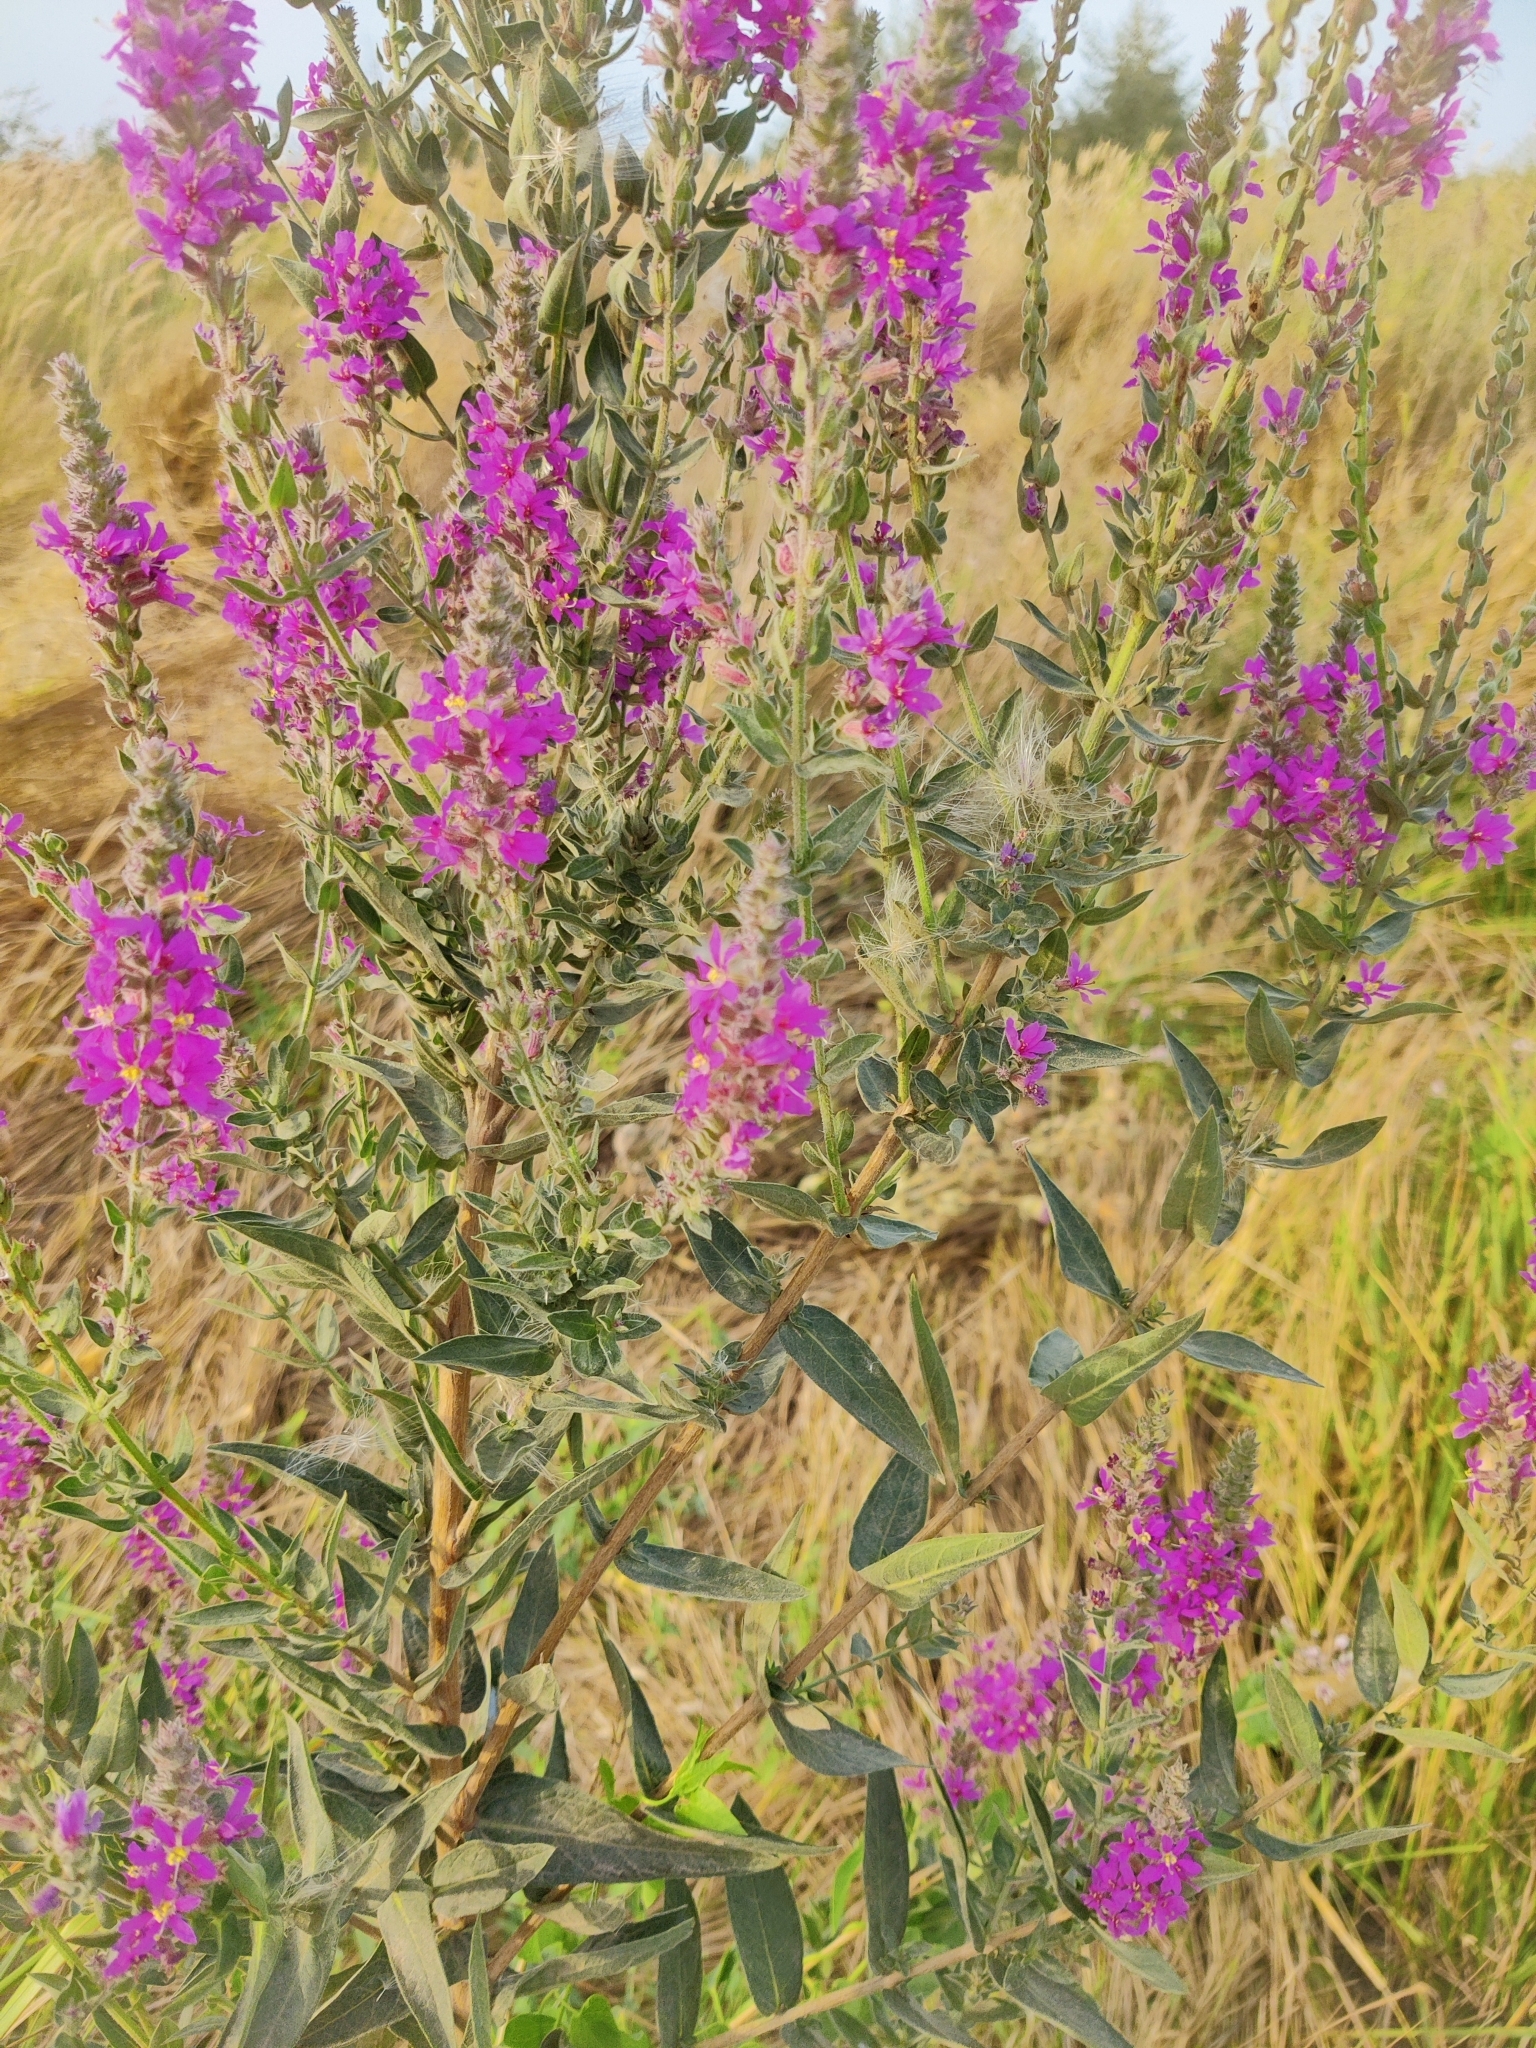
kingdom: Plantae
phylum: Tracheophyta
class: Magnoliopsida
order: Myrtales
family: Lythraceae
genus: Lythrum
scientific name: Lythrum salicaria
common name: Purple loosestrife
